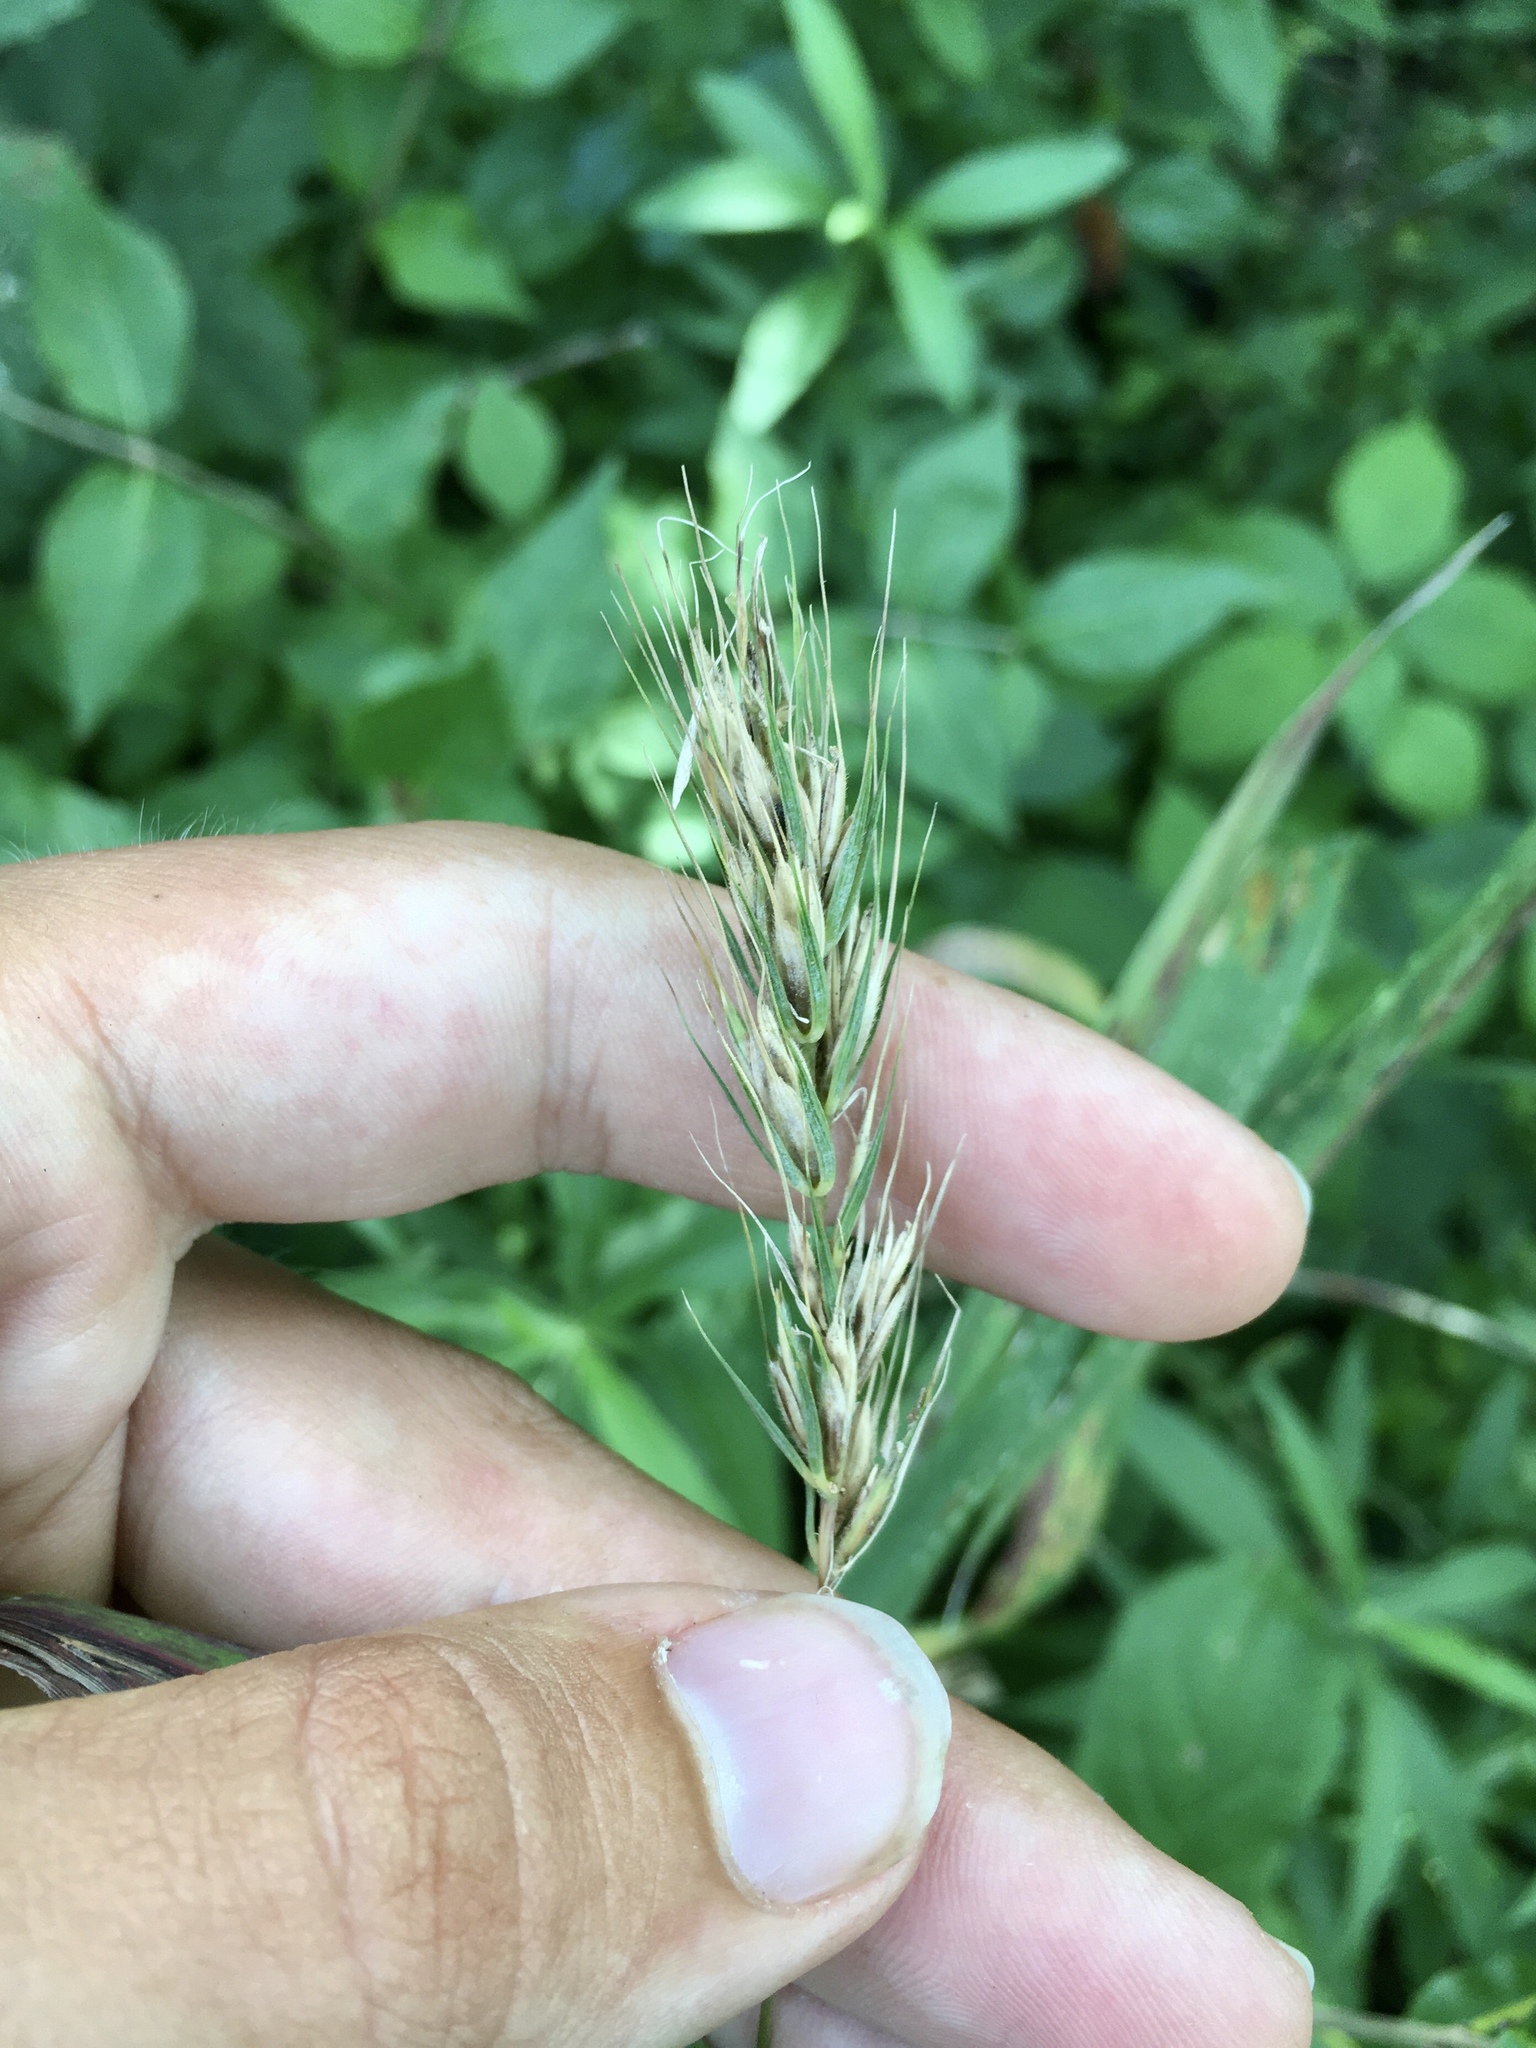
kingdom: Plantae
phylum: Tracheophyta
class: Liliopsida
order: Poales
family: Poaceae
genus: Elymus
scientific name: Elymus virginicus
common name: Common eastern wildrye
